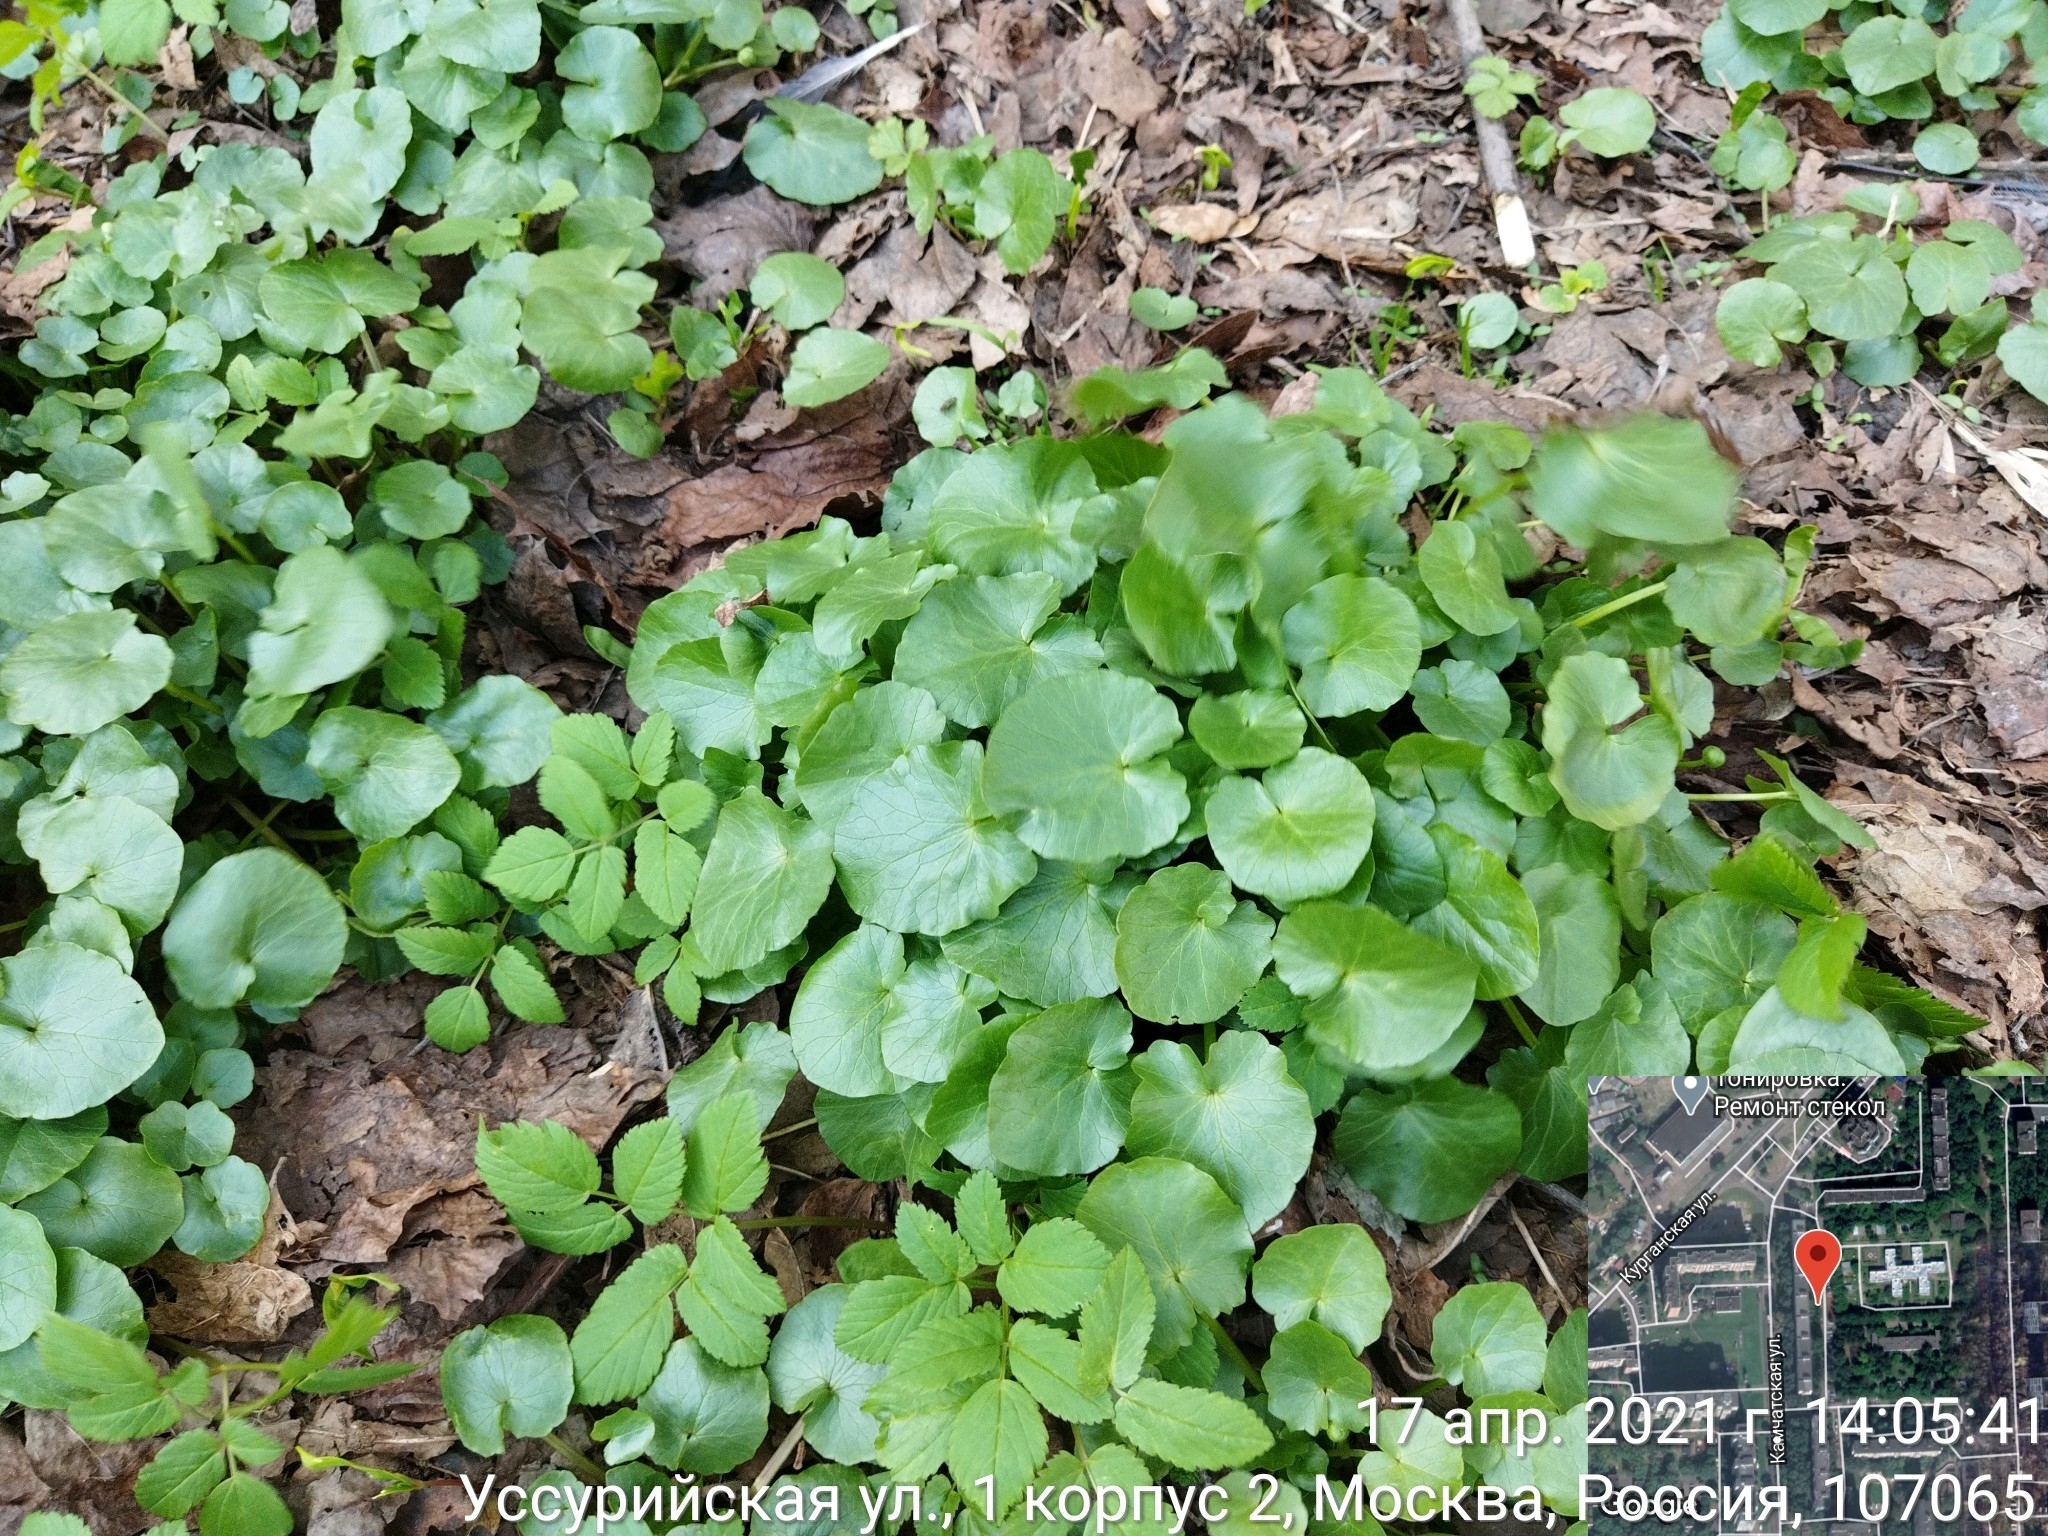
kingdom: Plantae
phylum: Tracheophyta
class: Magnoliopsida
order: Ranunculales
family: Ranunculaceae
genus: Ficaria
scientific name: Ficaria verna
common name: Lesser celandine
